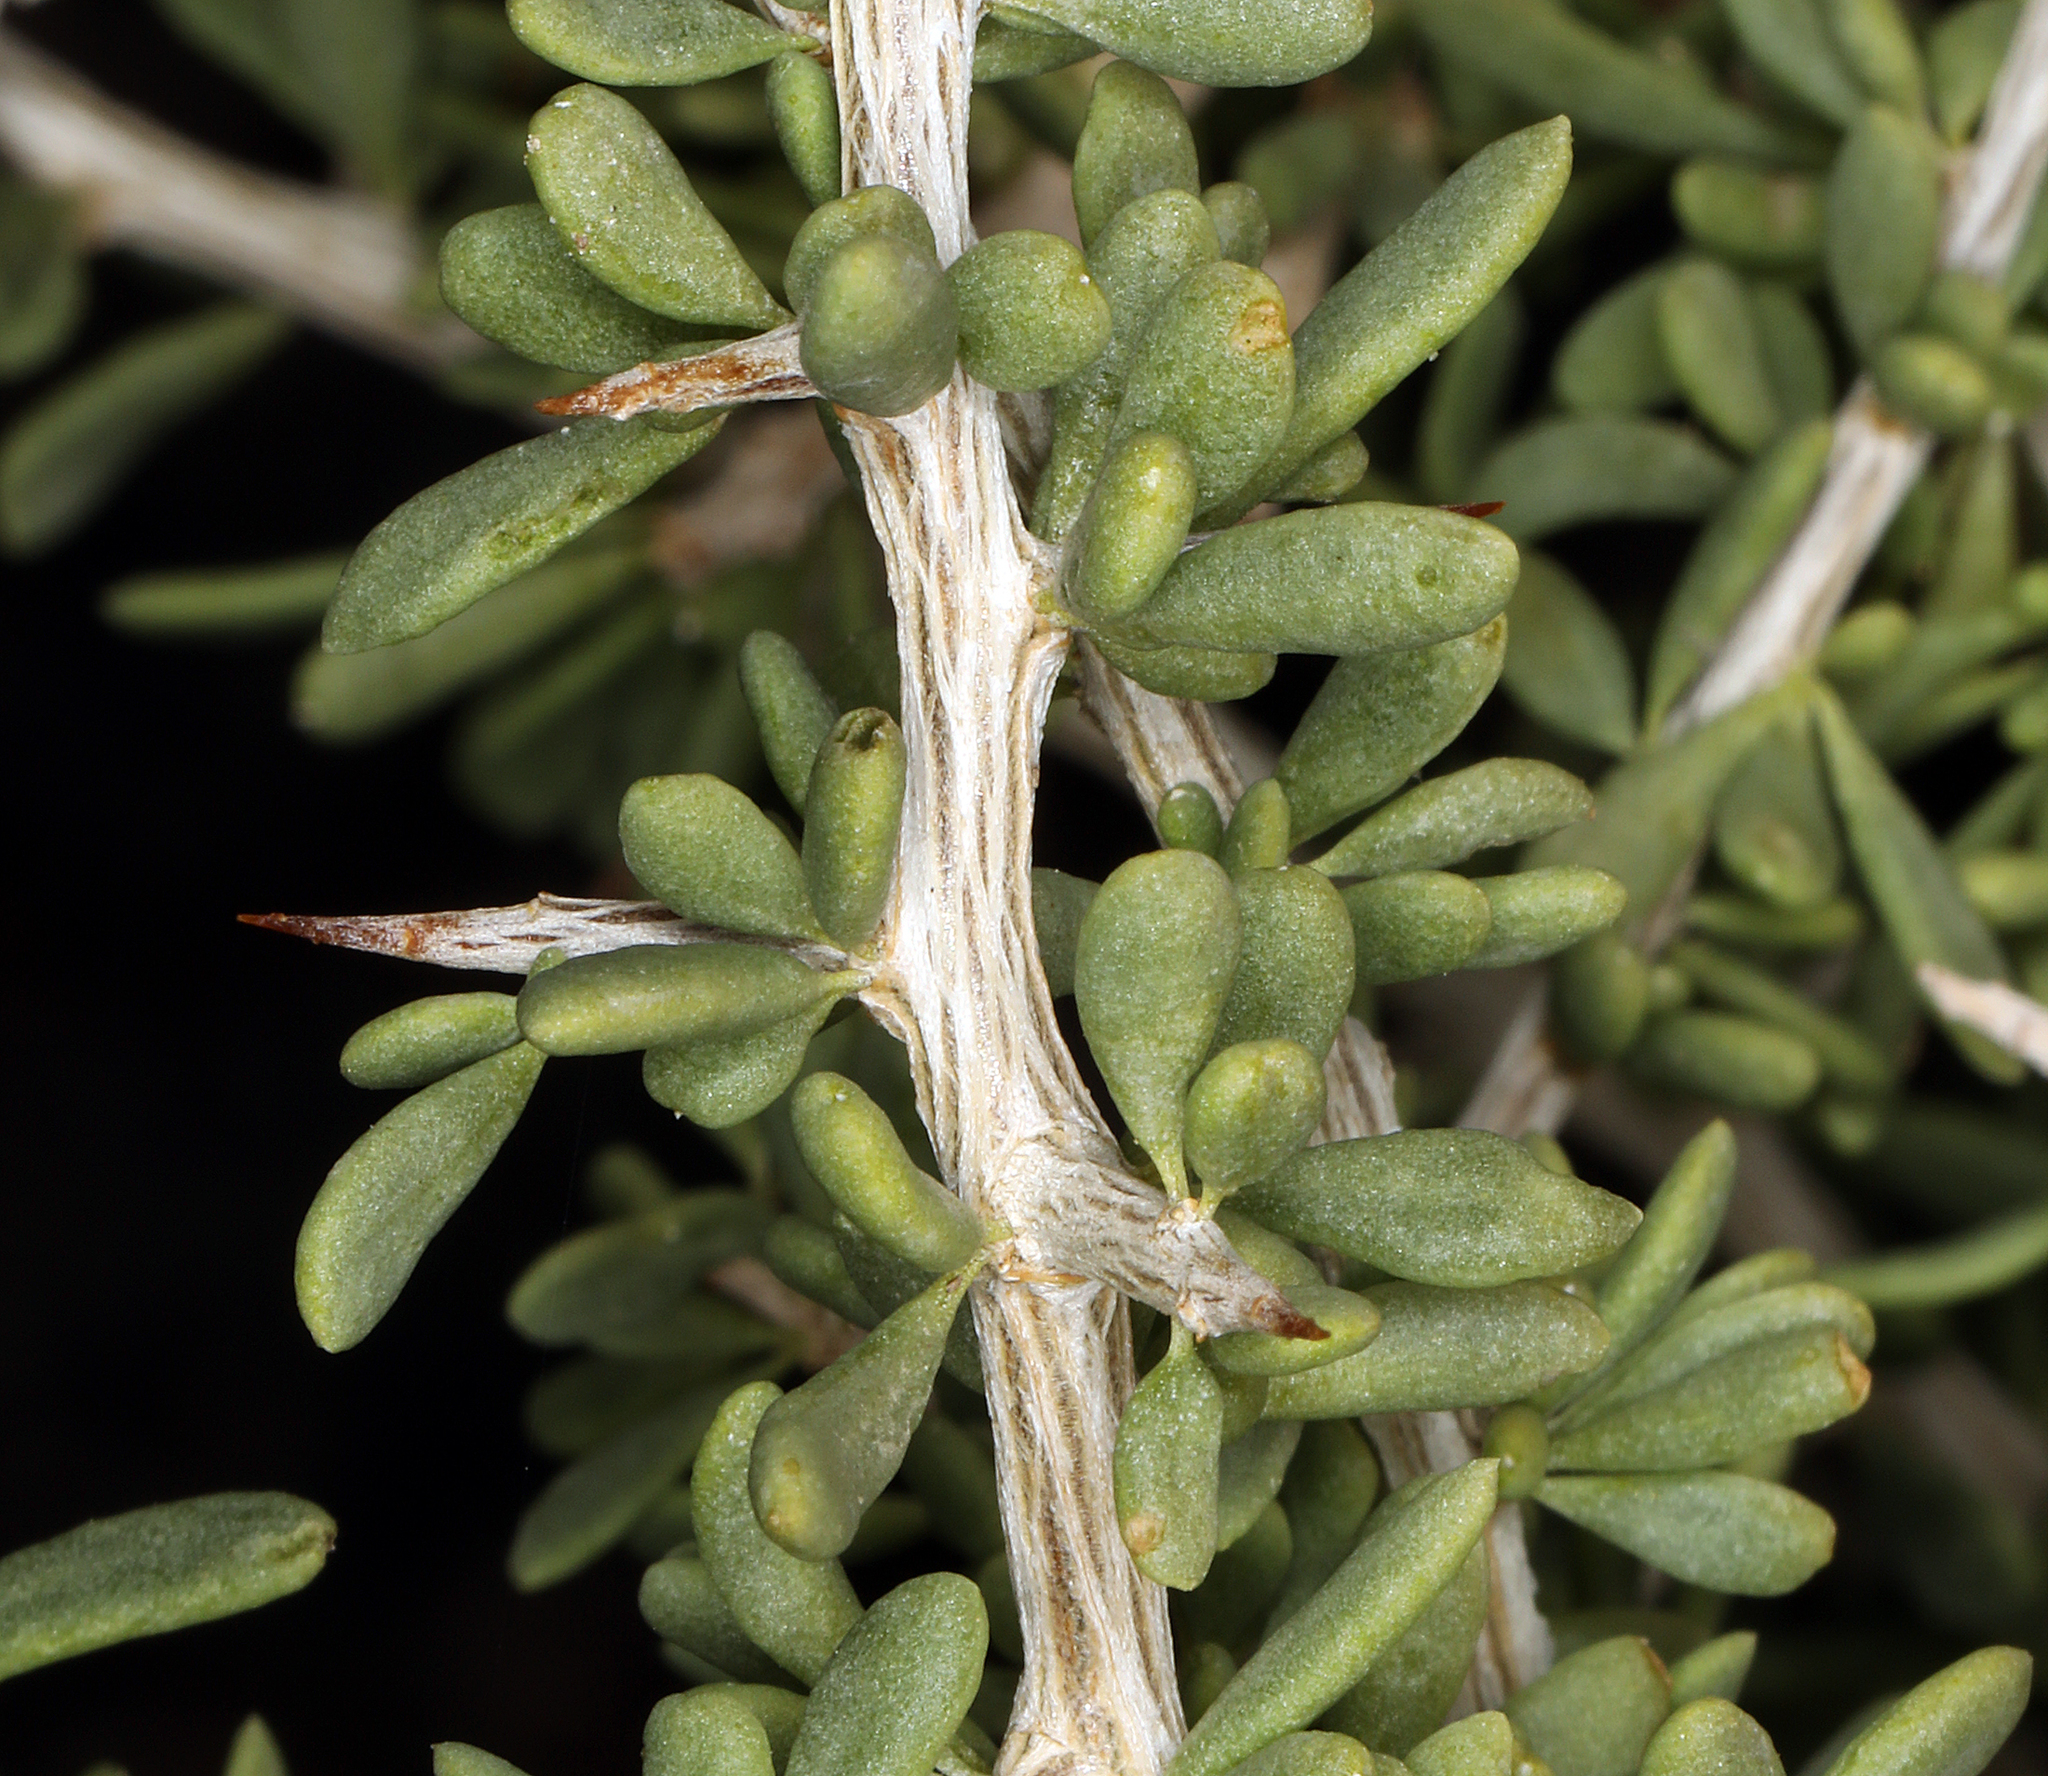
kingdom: Plantae
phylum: Tracheophyta
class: Magnoliopsida
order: Solanales
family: Solanaceae
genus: Lycium
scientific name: Lycium andersonii
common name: Water-jacket
